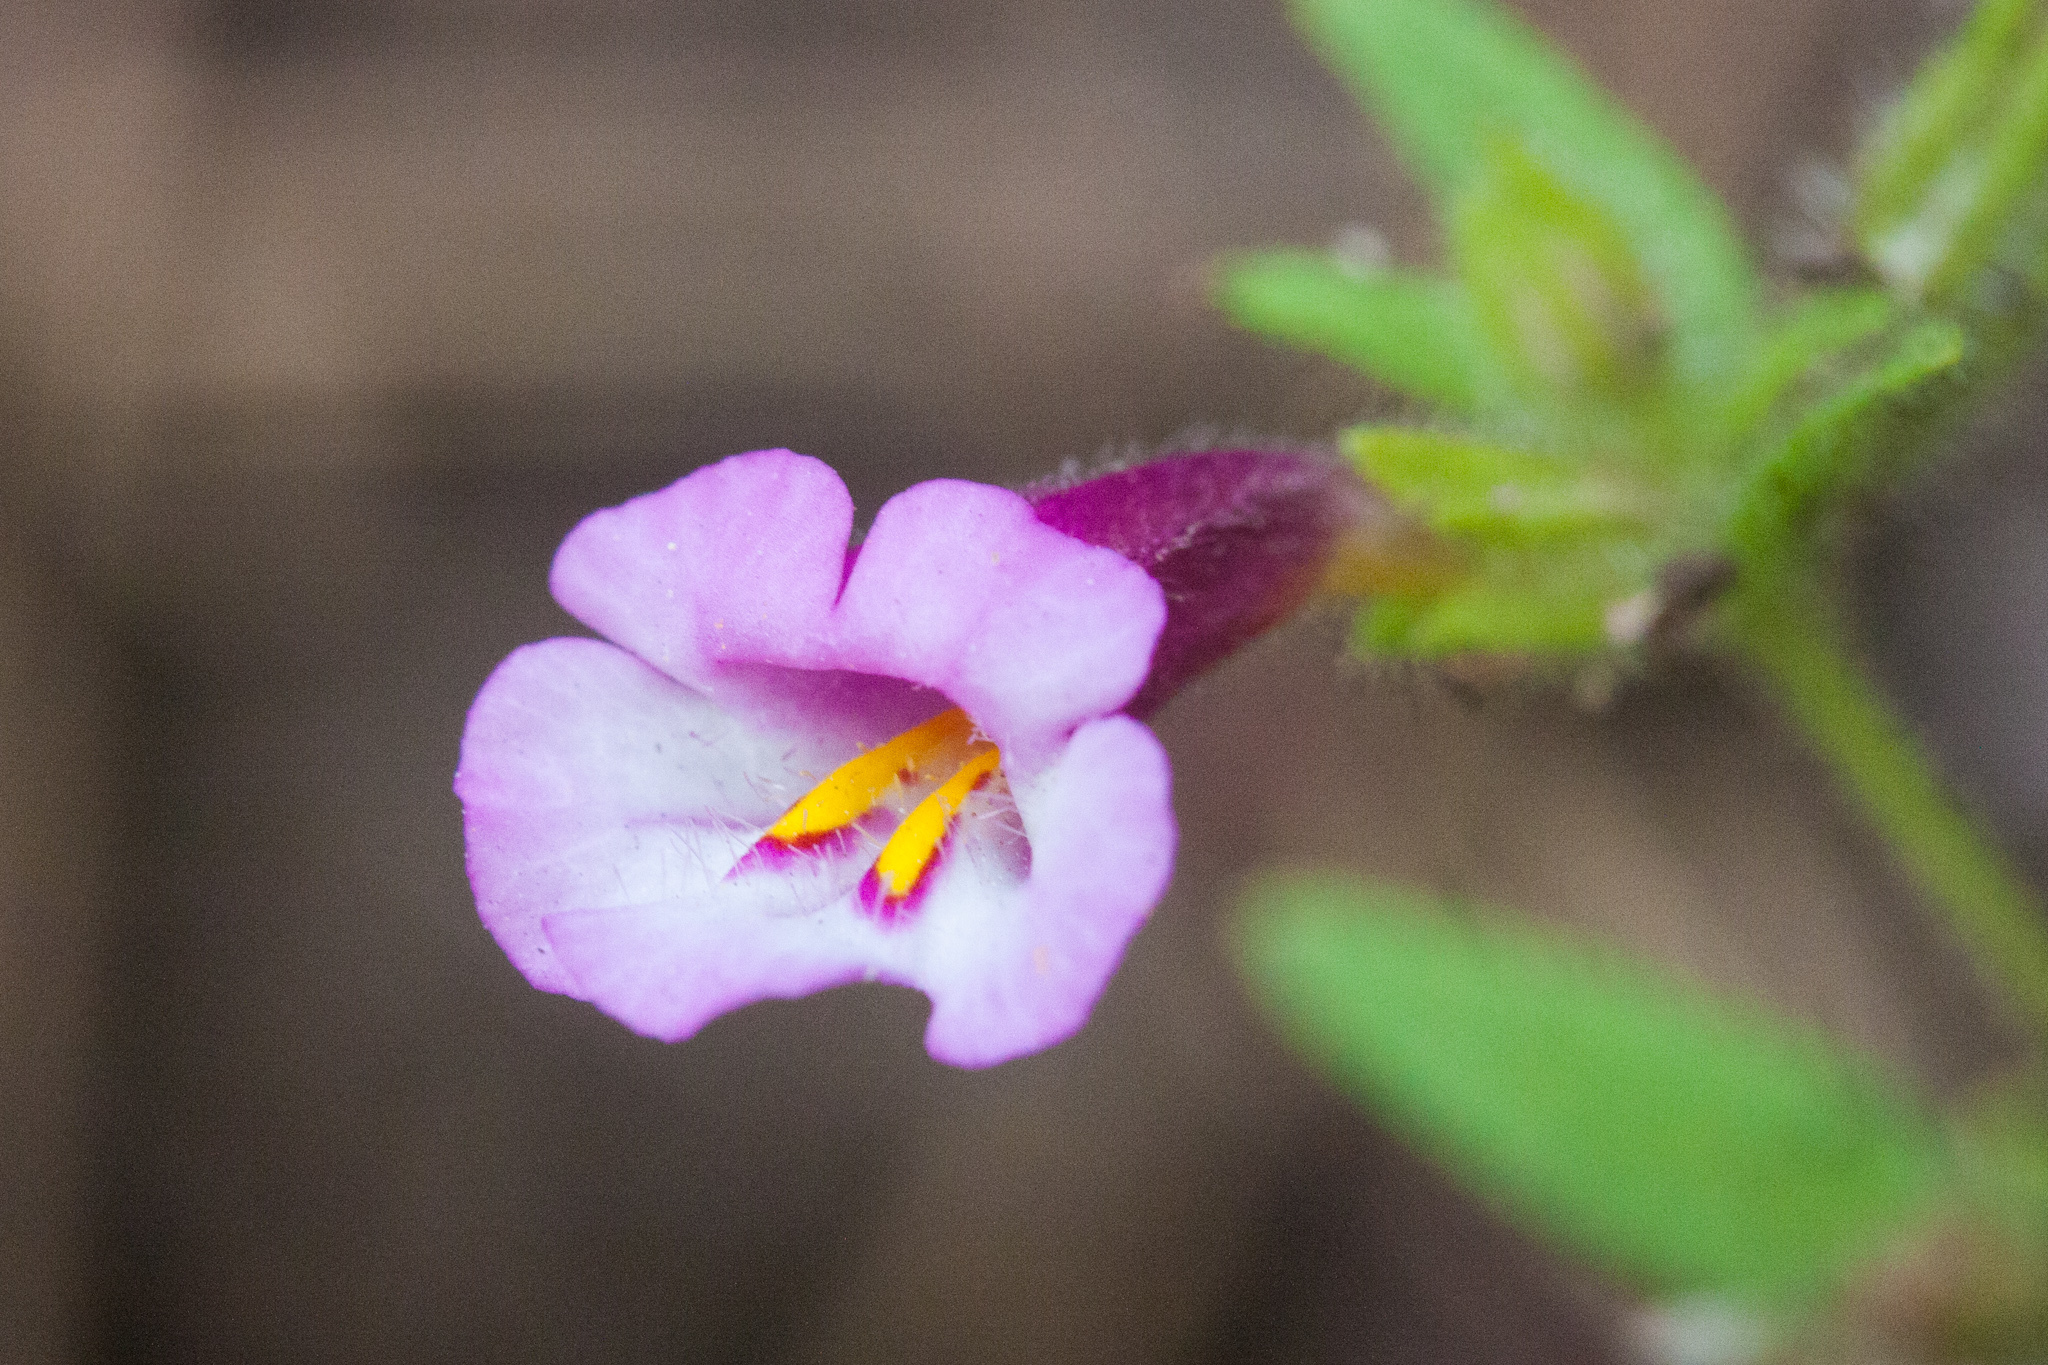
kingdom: Plantae
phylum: Tracheophyta
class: Magnoliopsida
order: Lamiales
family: Phrymaceae
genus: Diplacus
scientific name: Diplacus torreyi
